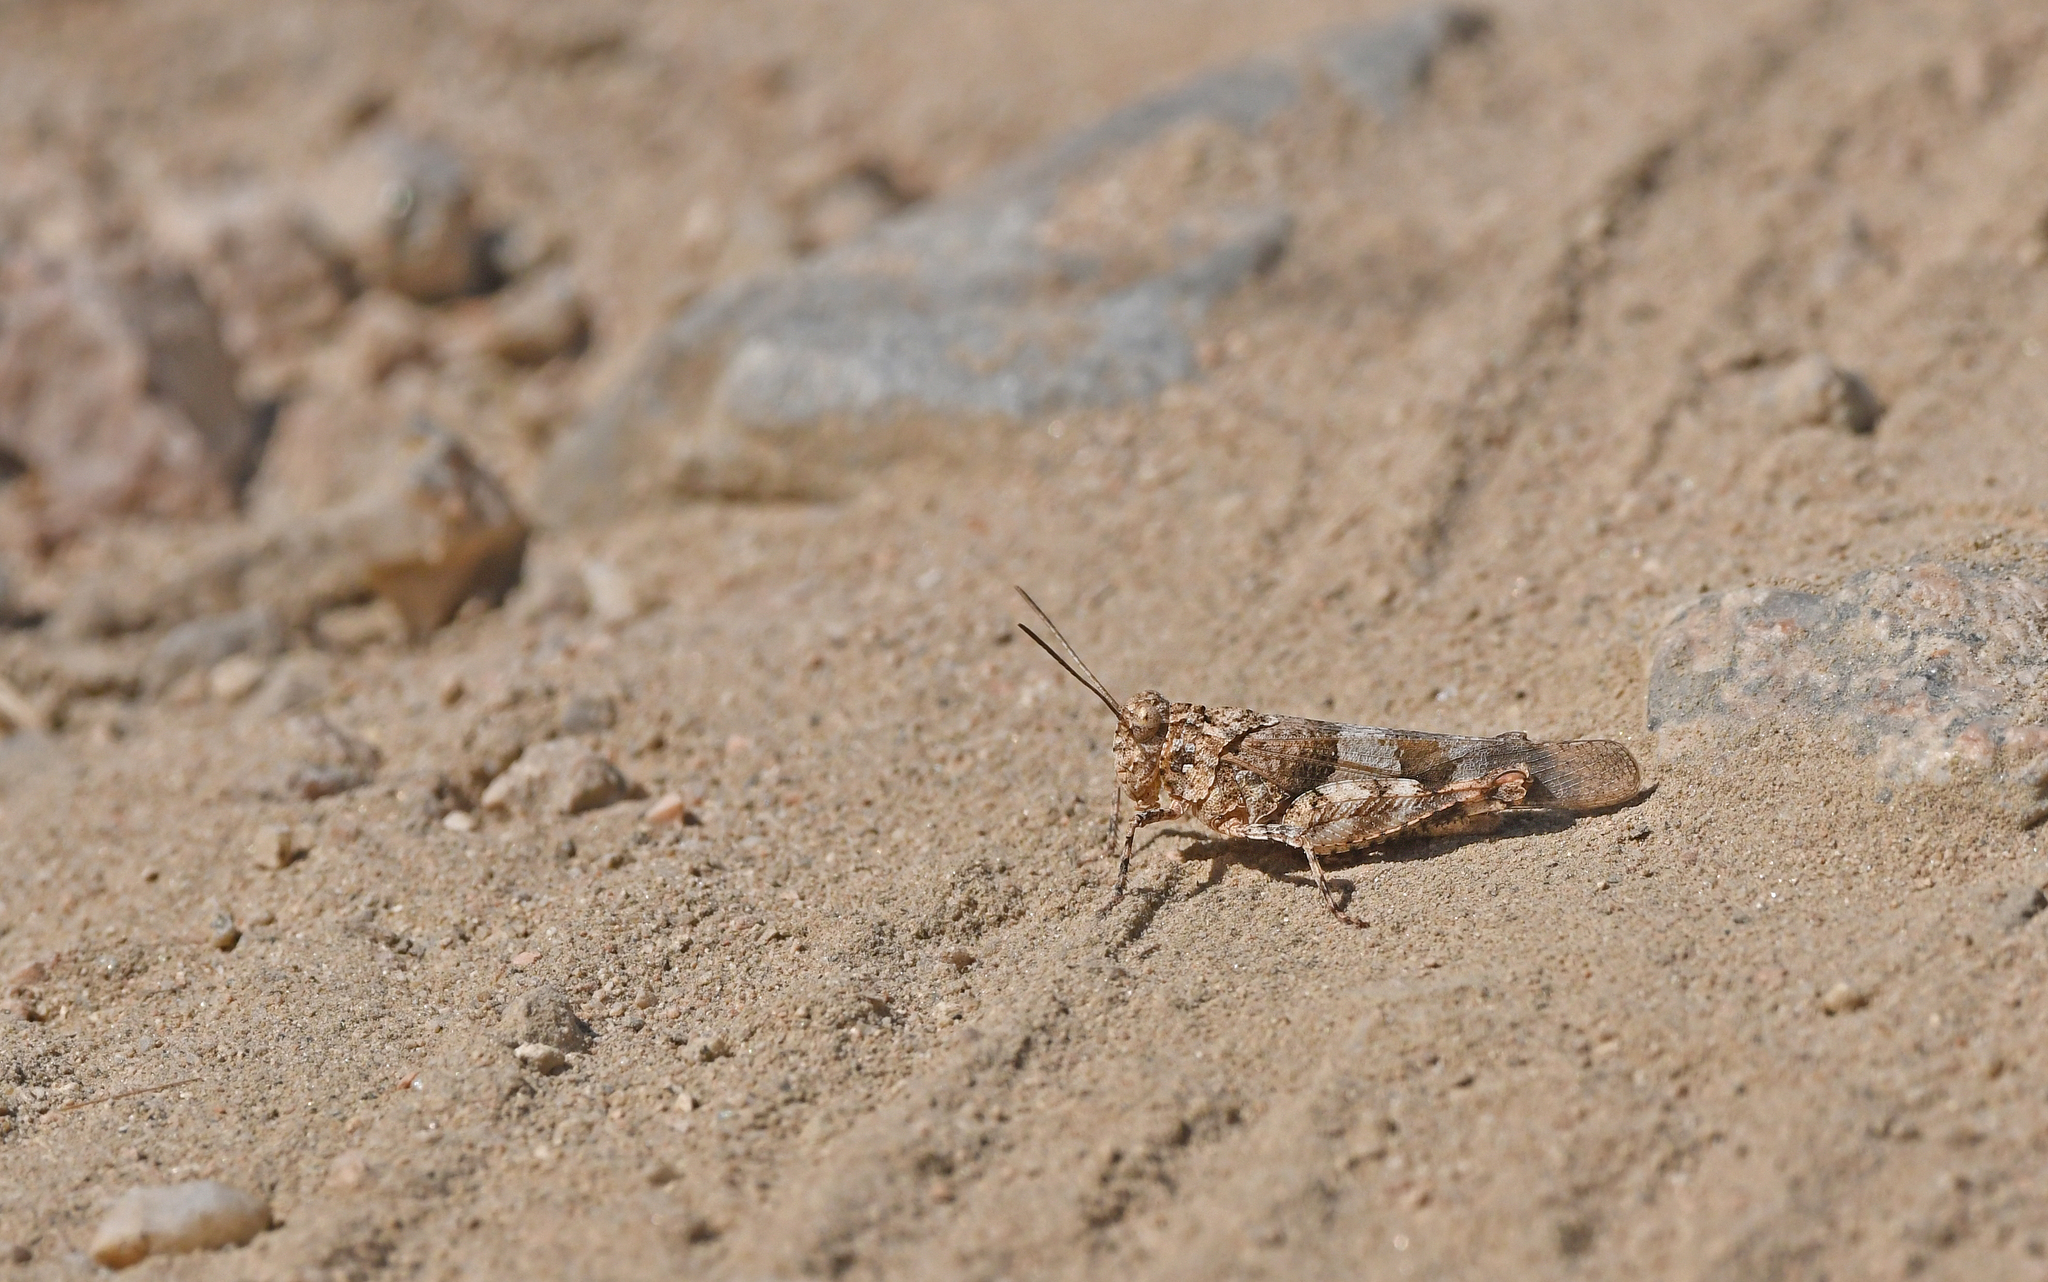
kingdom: Animalia
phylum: Arthropoda
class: Insecta
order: Orthoptera
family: Acrididae
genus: Oedipoda
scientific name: Oedipoda miniata
